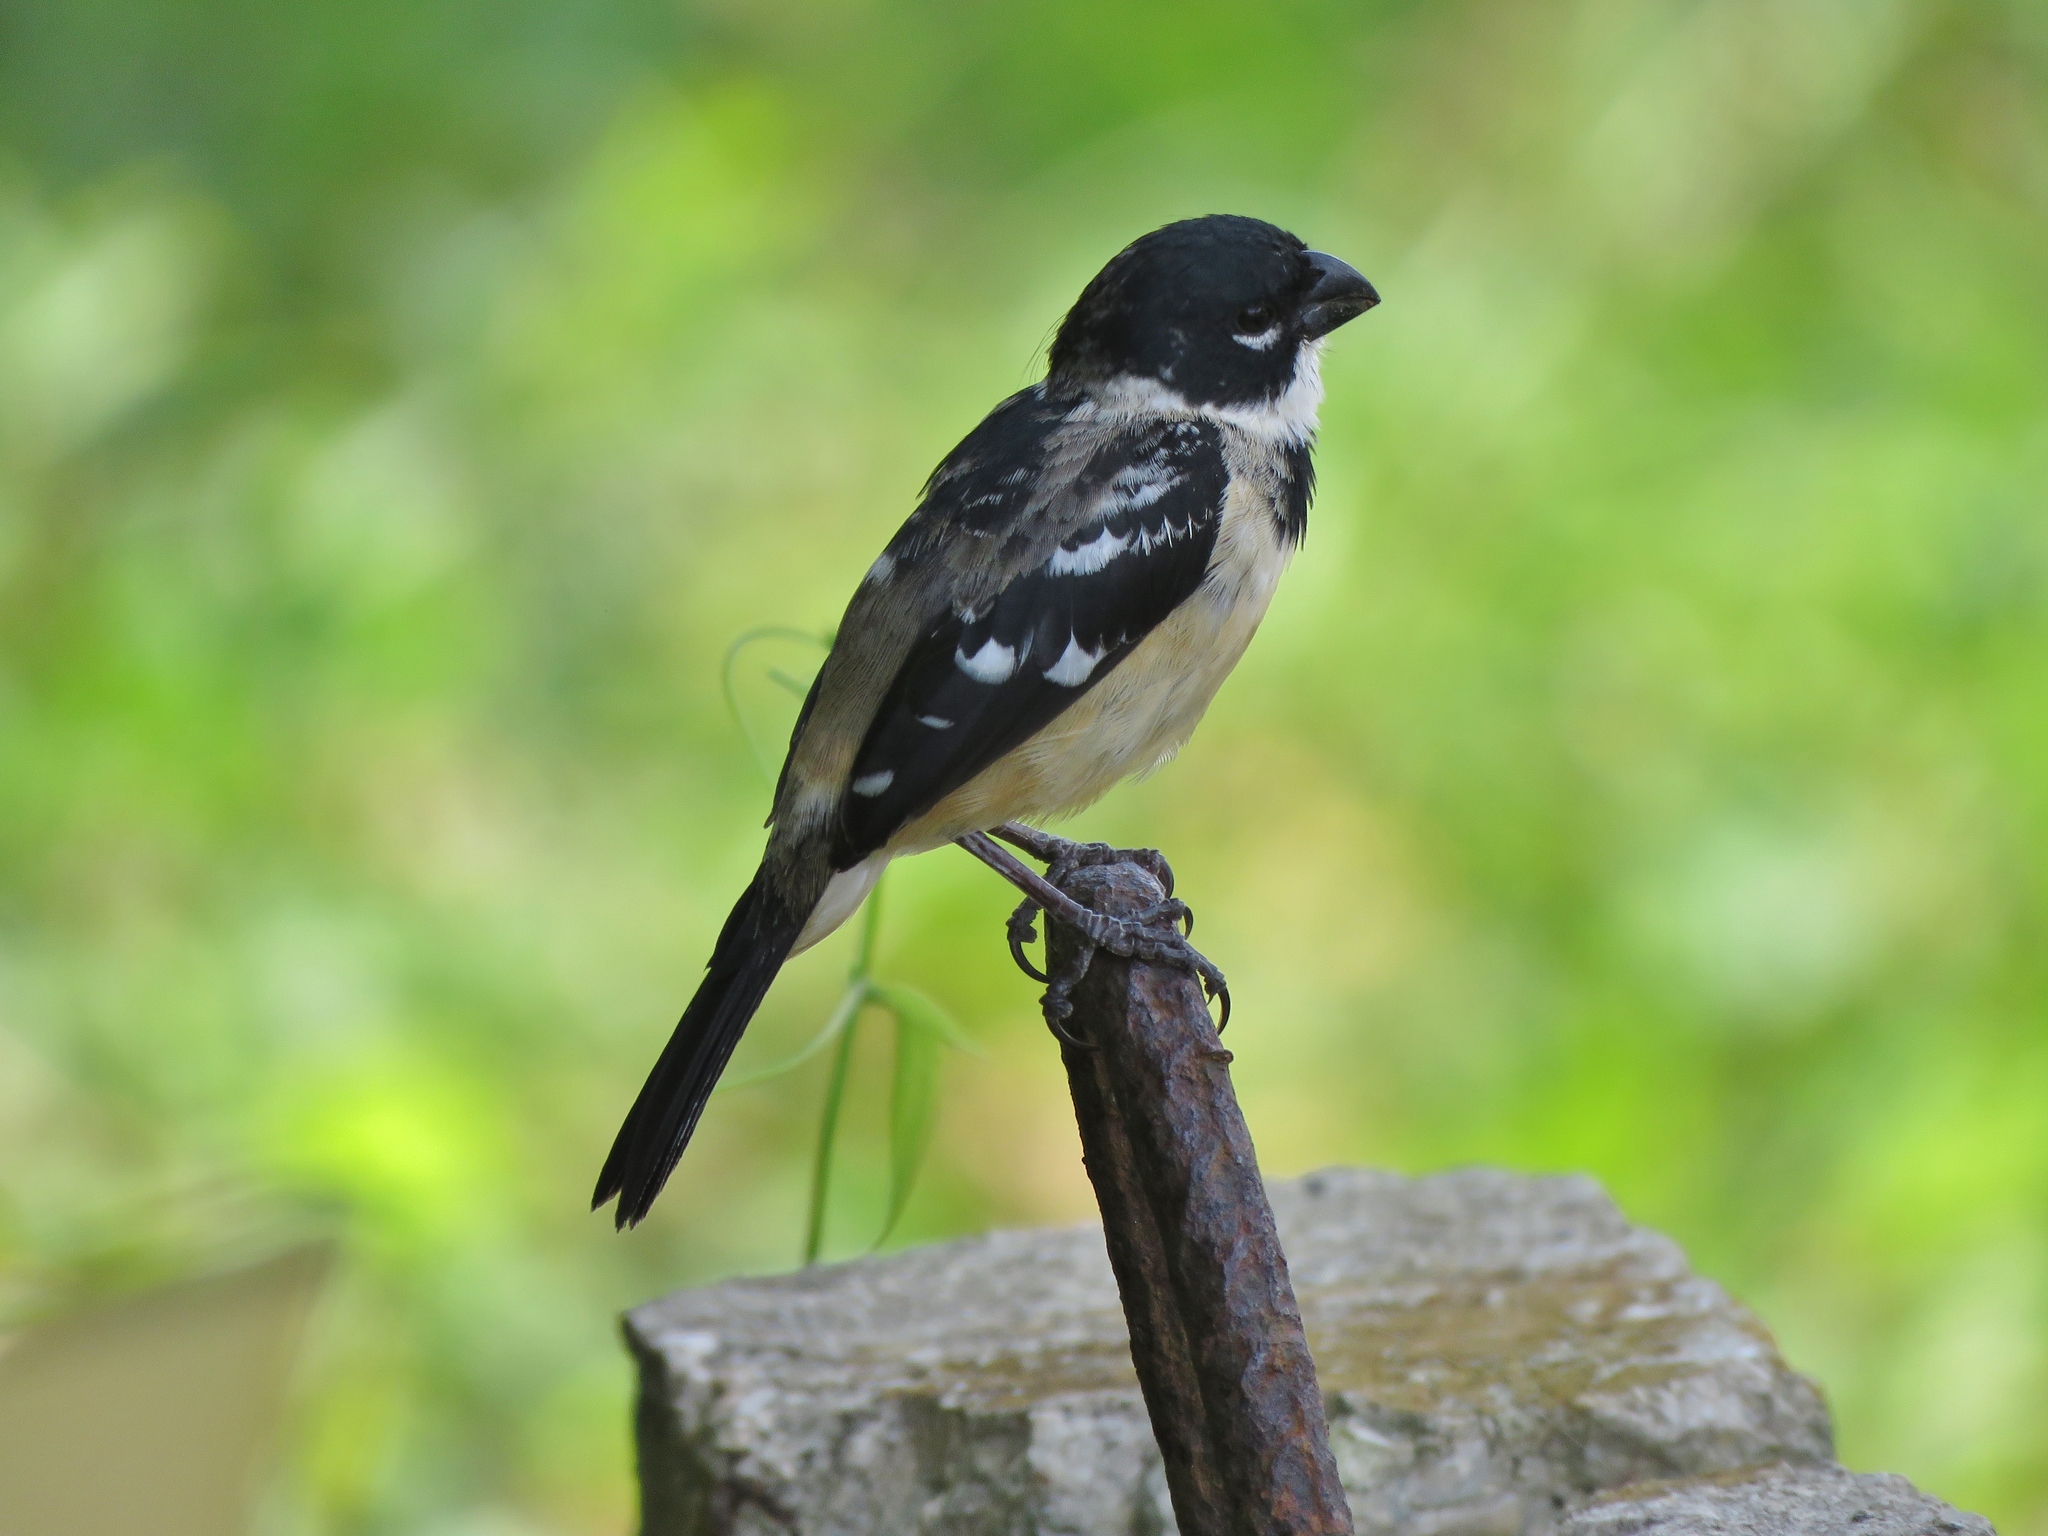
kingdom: Animalia
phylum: Chordata
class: Aves
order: Passeriformes
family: Thraupidae
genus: Sporophila
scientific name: Sporophila morelleti
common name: Morelet's seedeater
